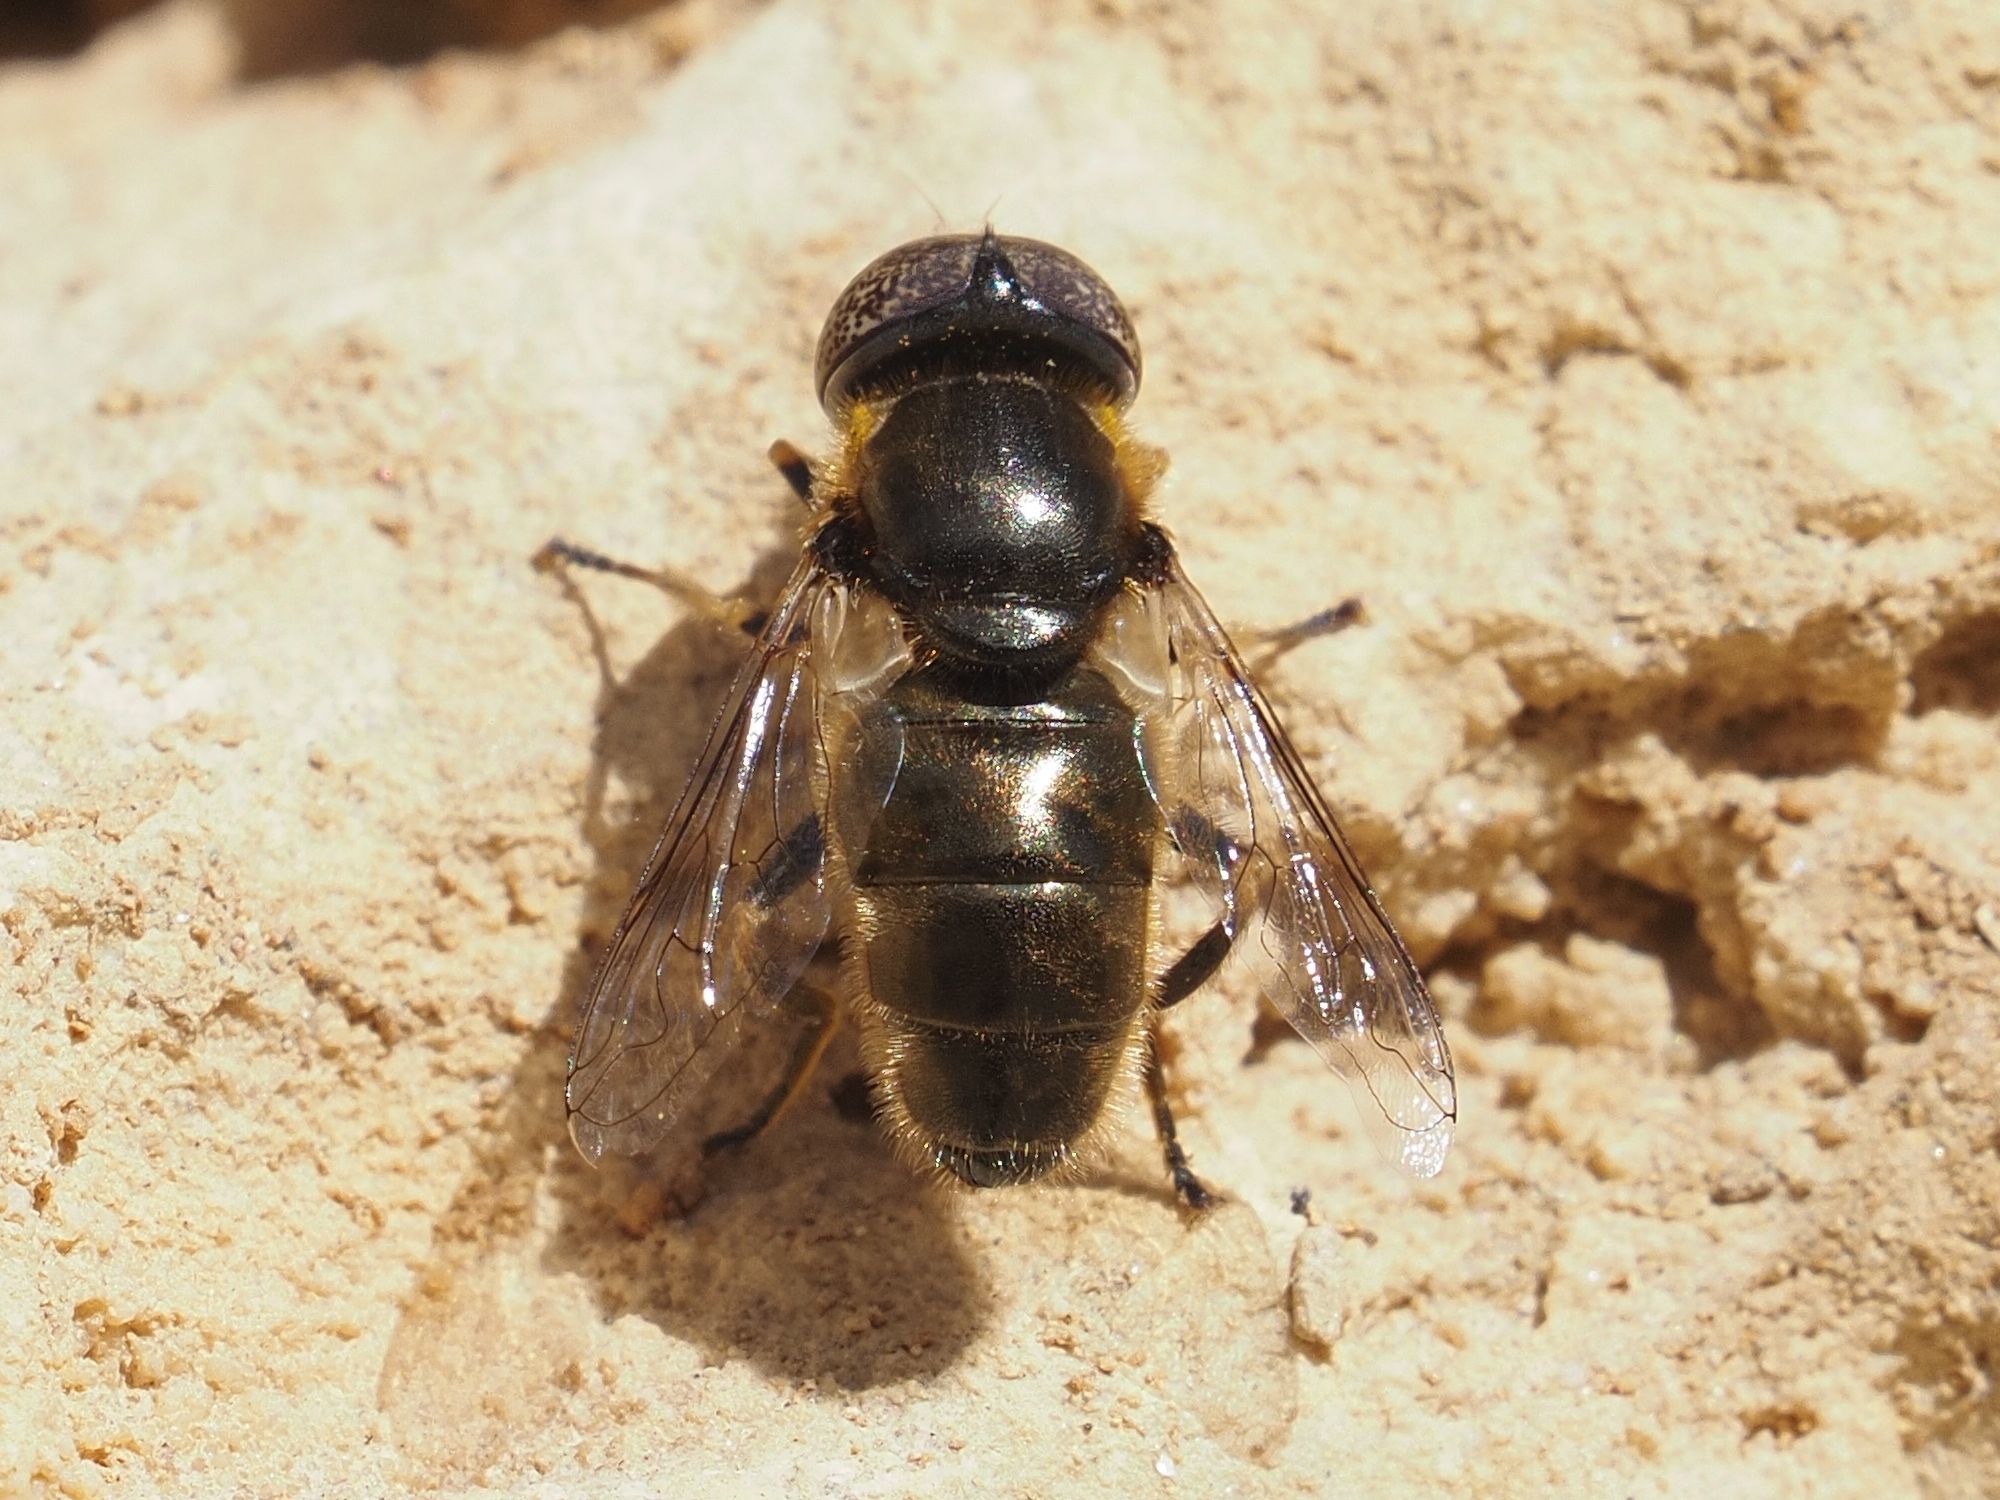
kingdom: Animalia
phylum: Arthropoda
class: Insecta
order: Diptera
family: Syrphidae
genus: Eristalinus
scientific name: Eristalinus aeneus
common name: Syrphid fly
